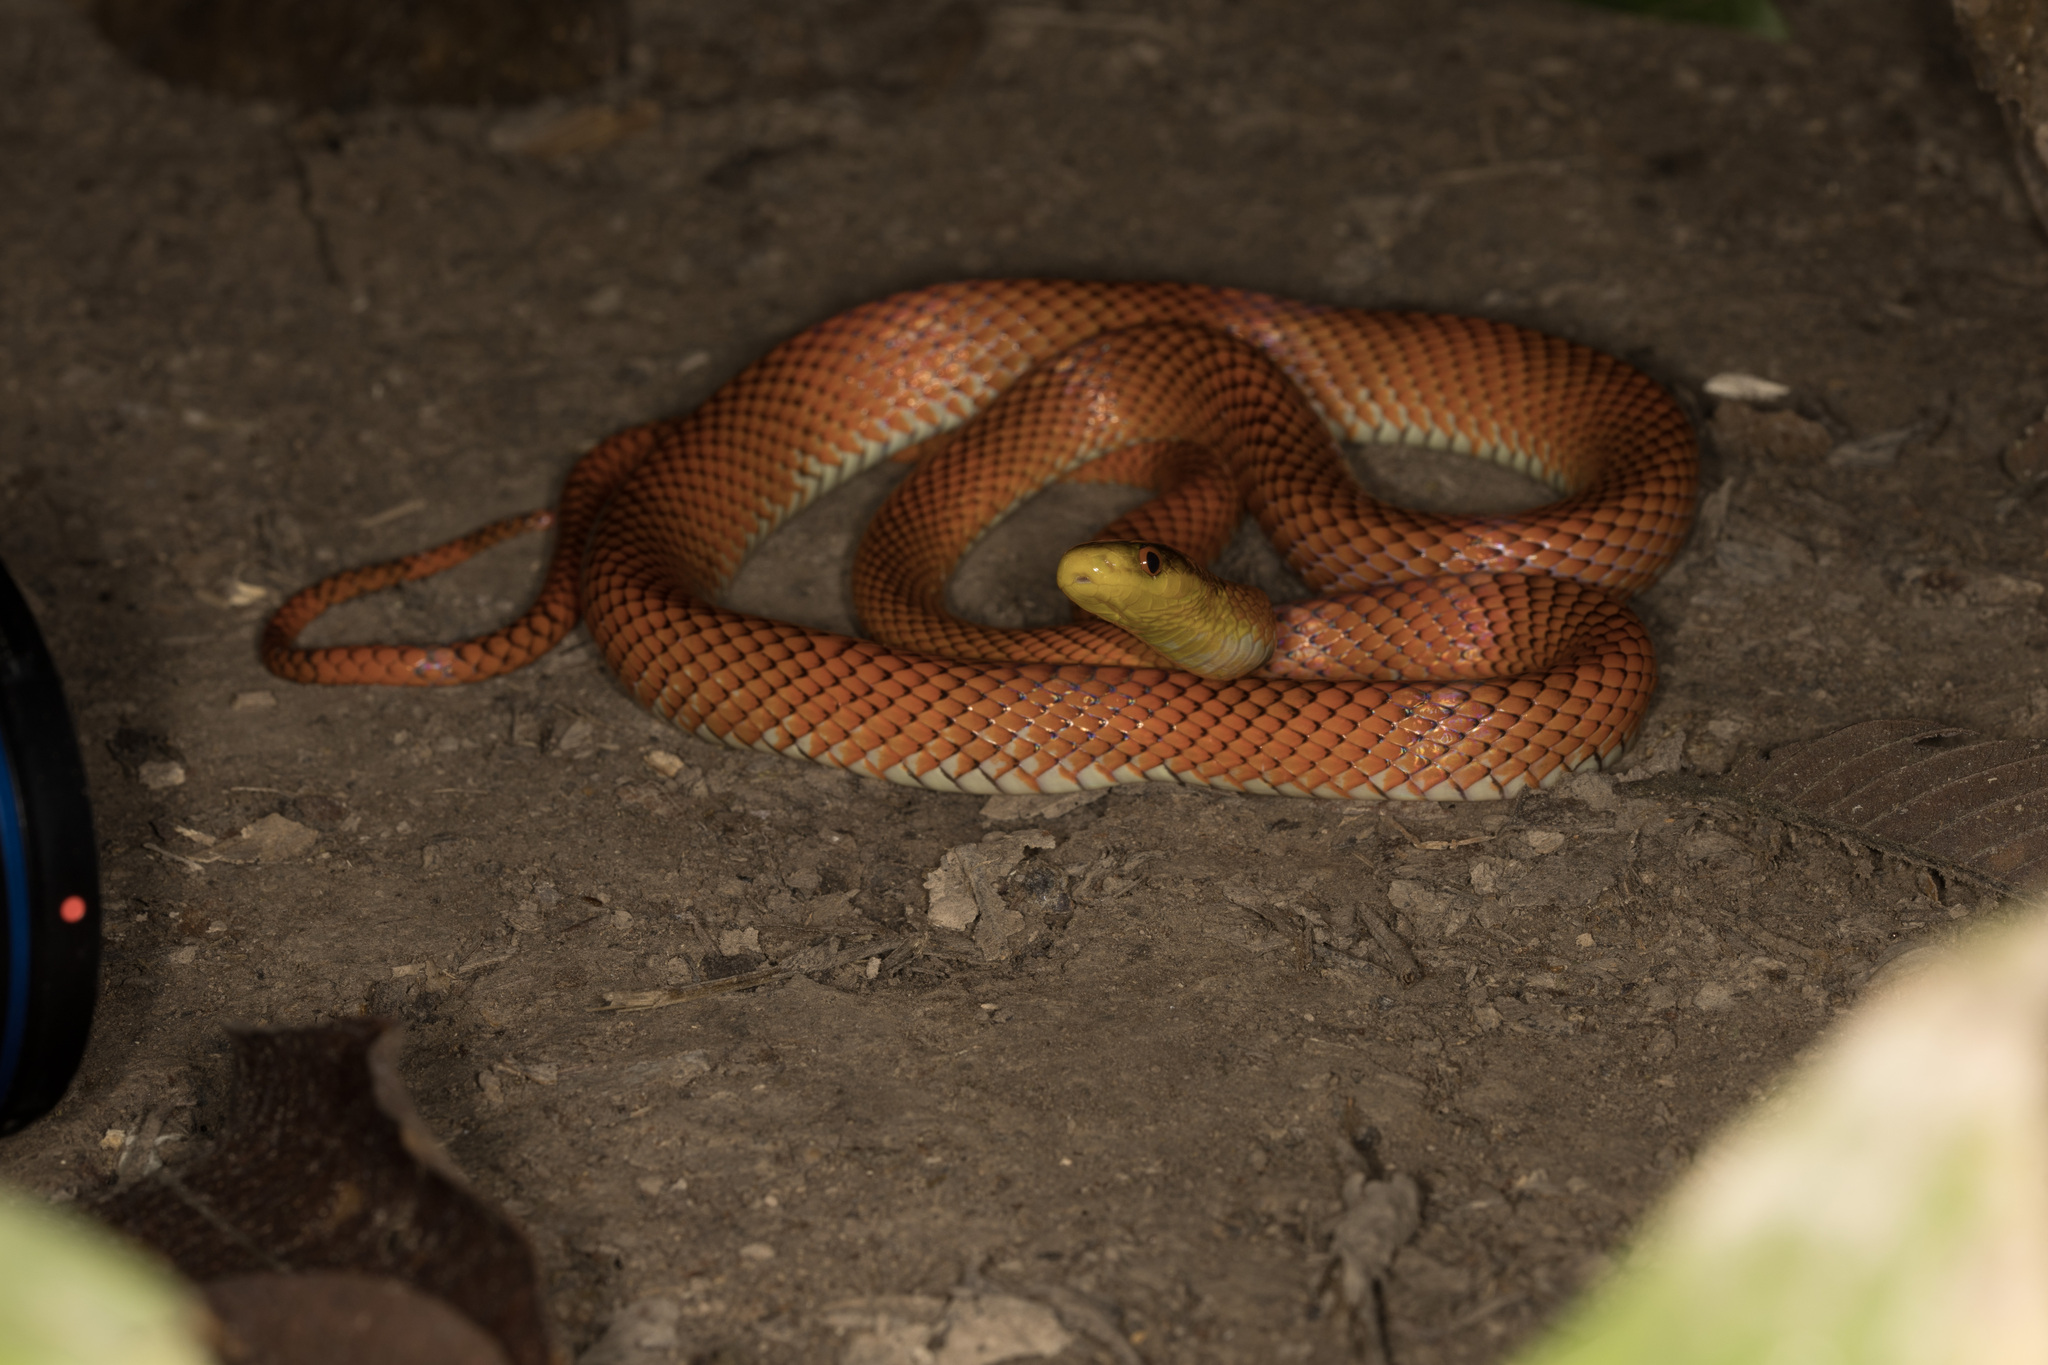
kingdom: Animalia
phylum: Chordata
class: Squamata
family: Colubridae
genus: Oxyrhopus
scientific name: Oxyrhopus occipitalis
